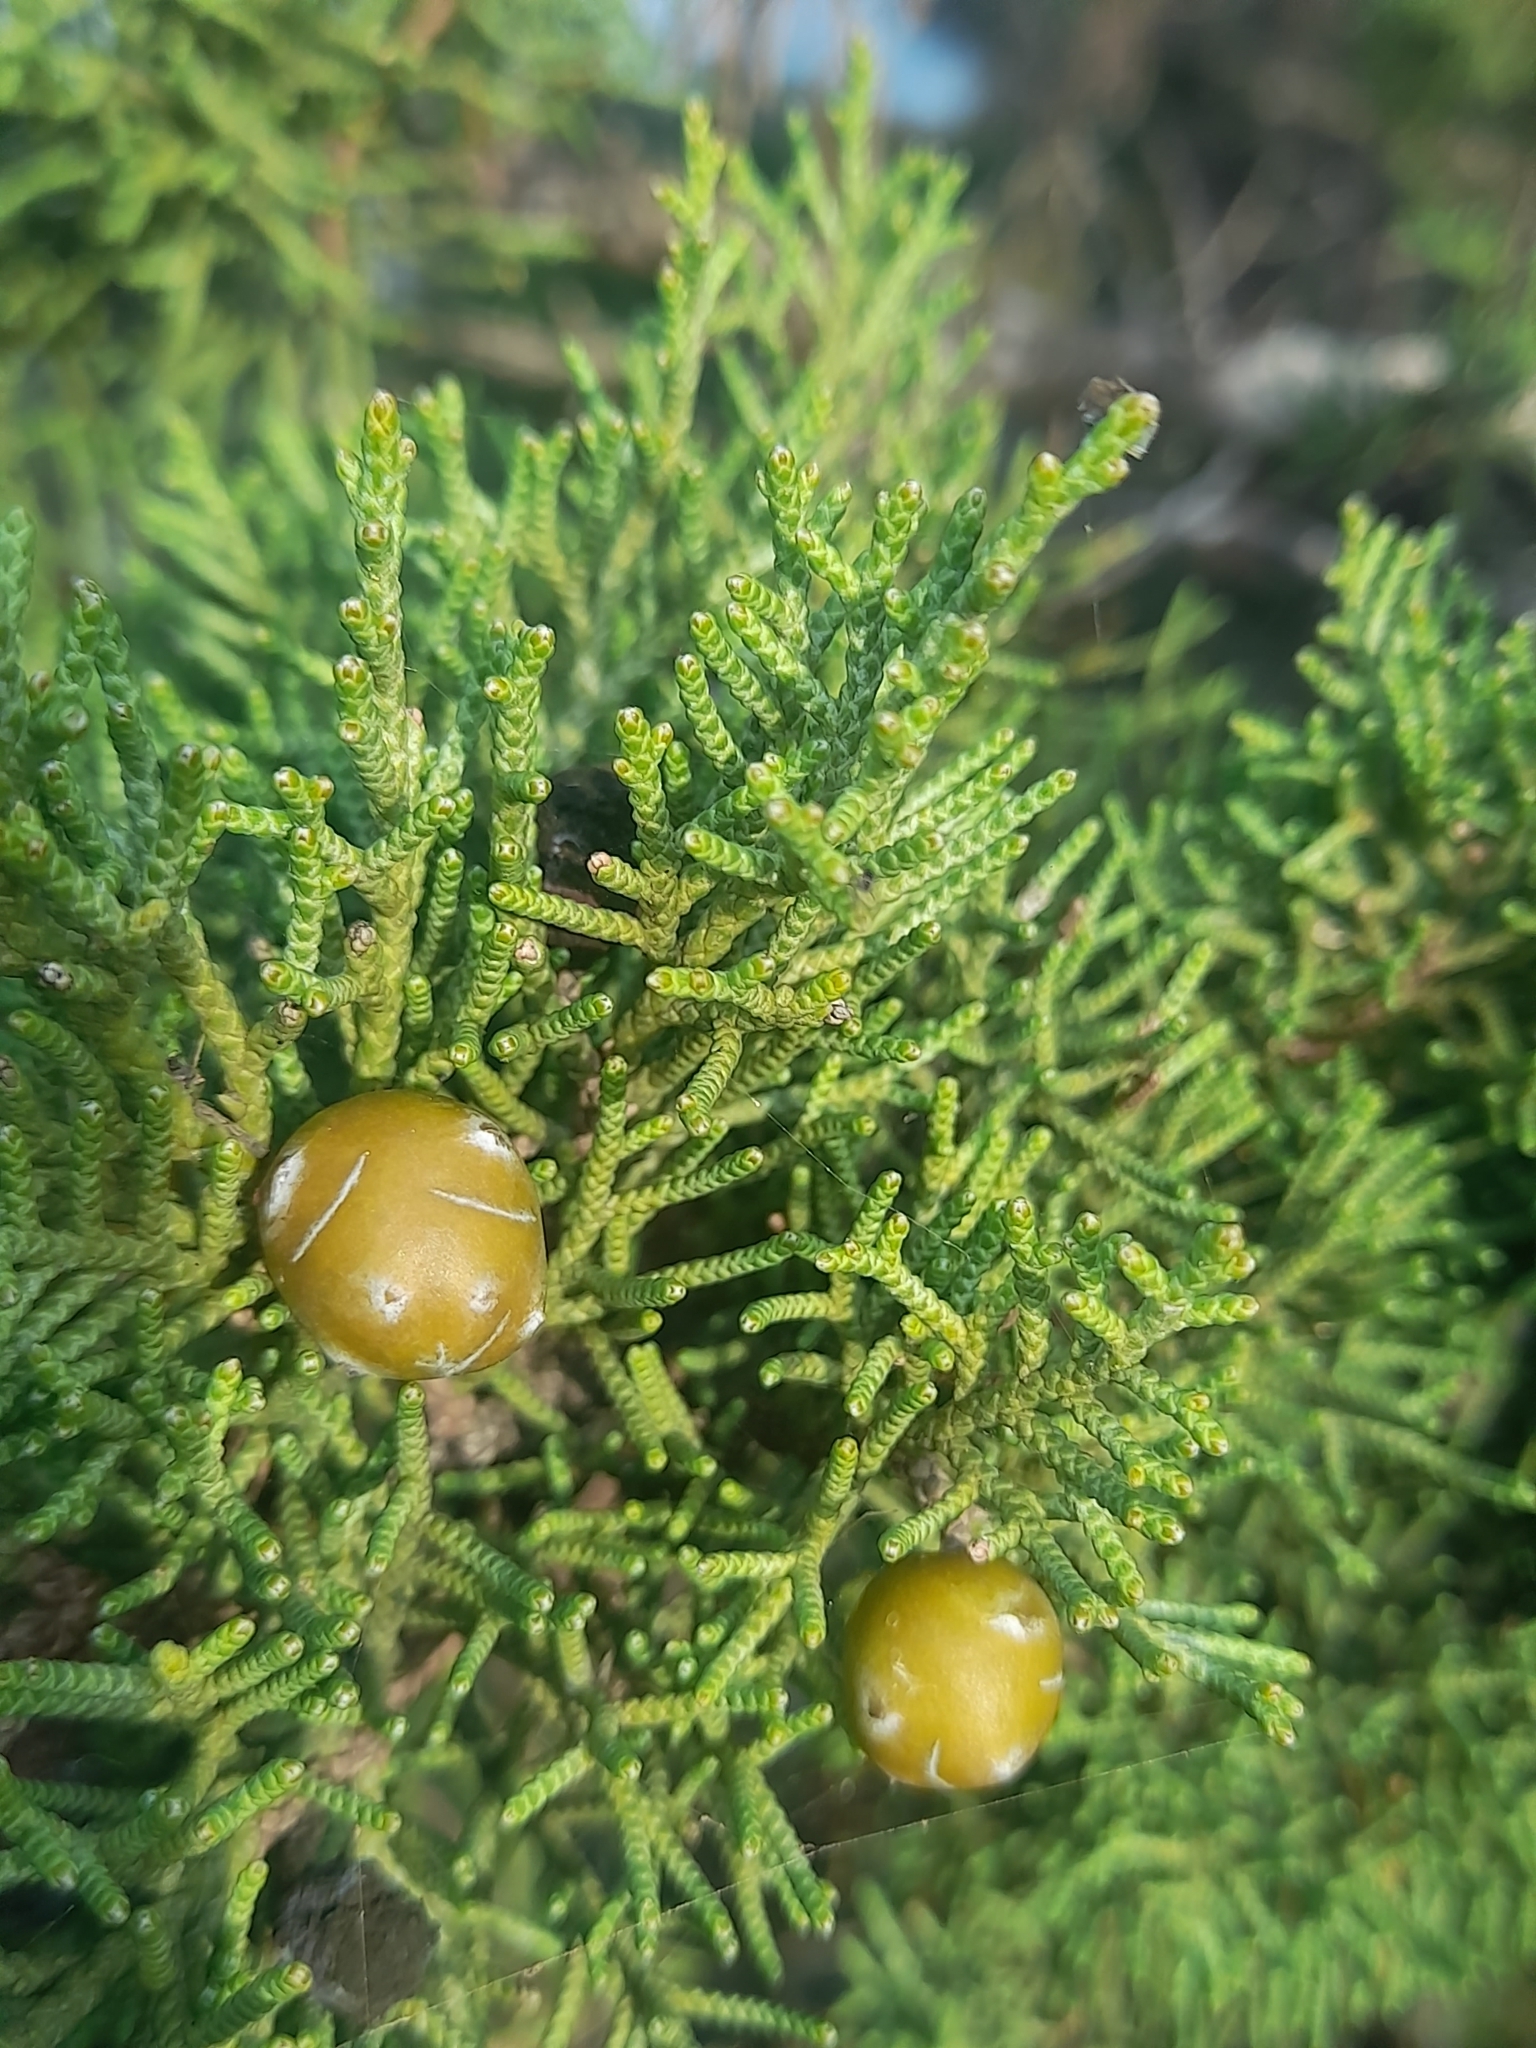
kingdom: Plantae
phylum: Tracheophyta
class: Pinopsida
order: Pinales
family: Cupressaceae
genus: Juniperus
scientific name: Juniperus phoenicea
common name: Phoenician juniper
